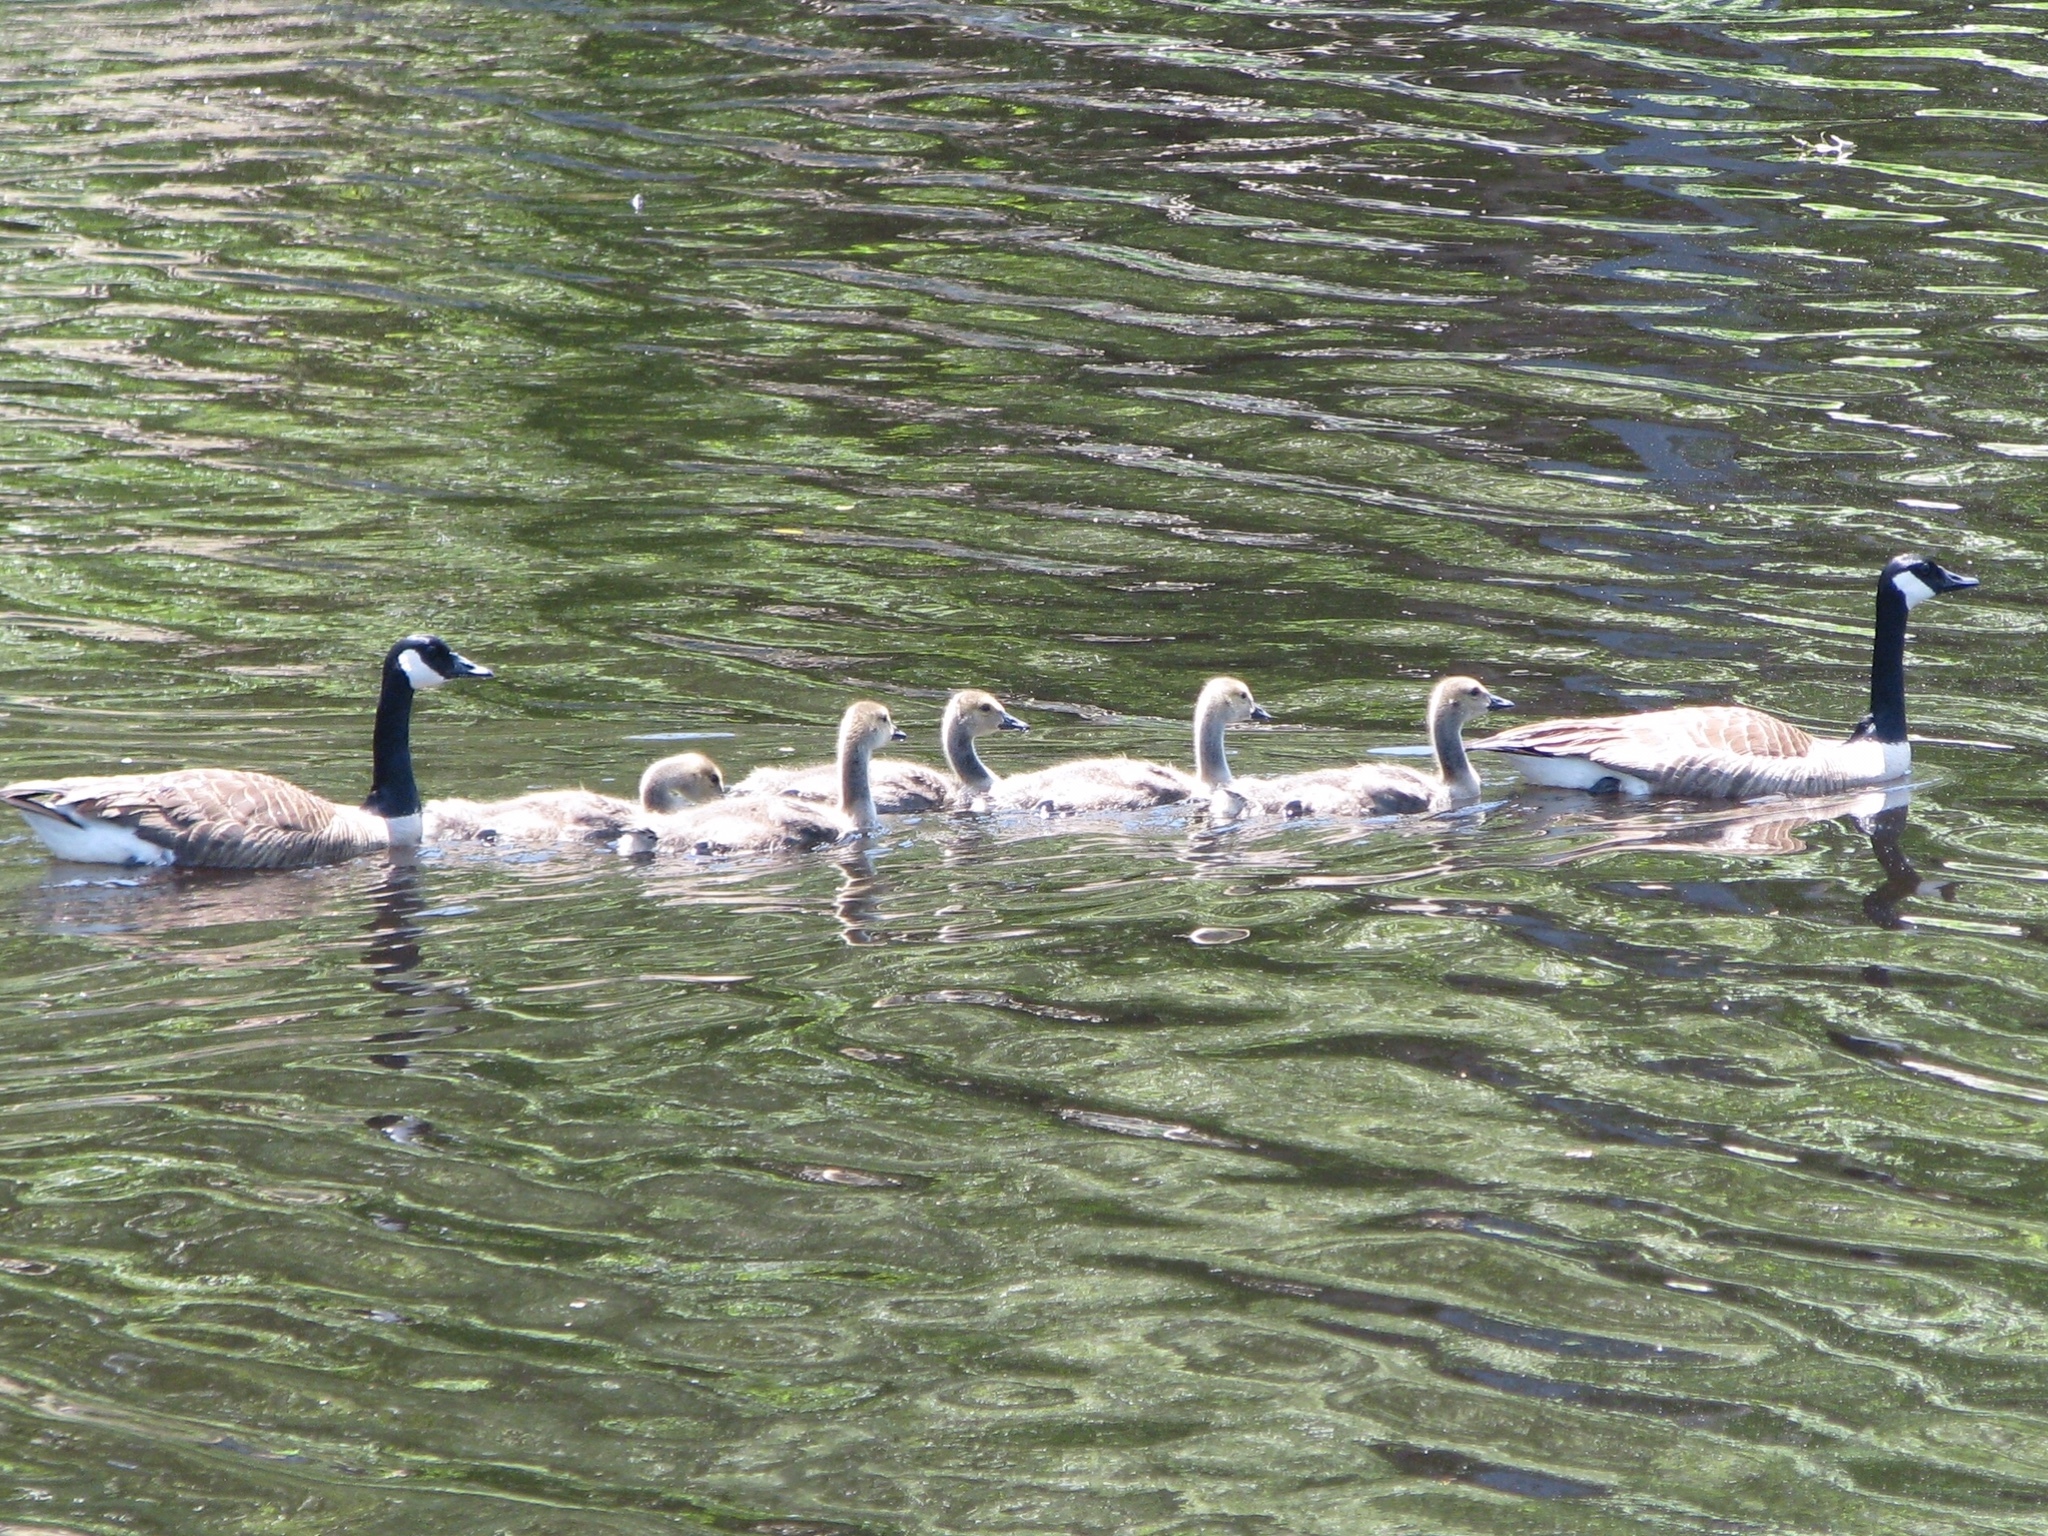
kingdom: Animalia
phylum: Chordata
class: Aves
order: Anseriformes
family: Anatidae
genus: Branta
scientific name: Branta canadensis
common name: Canada goose
